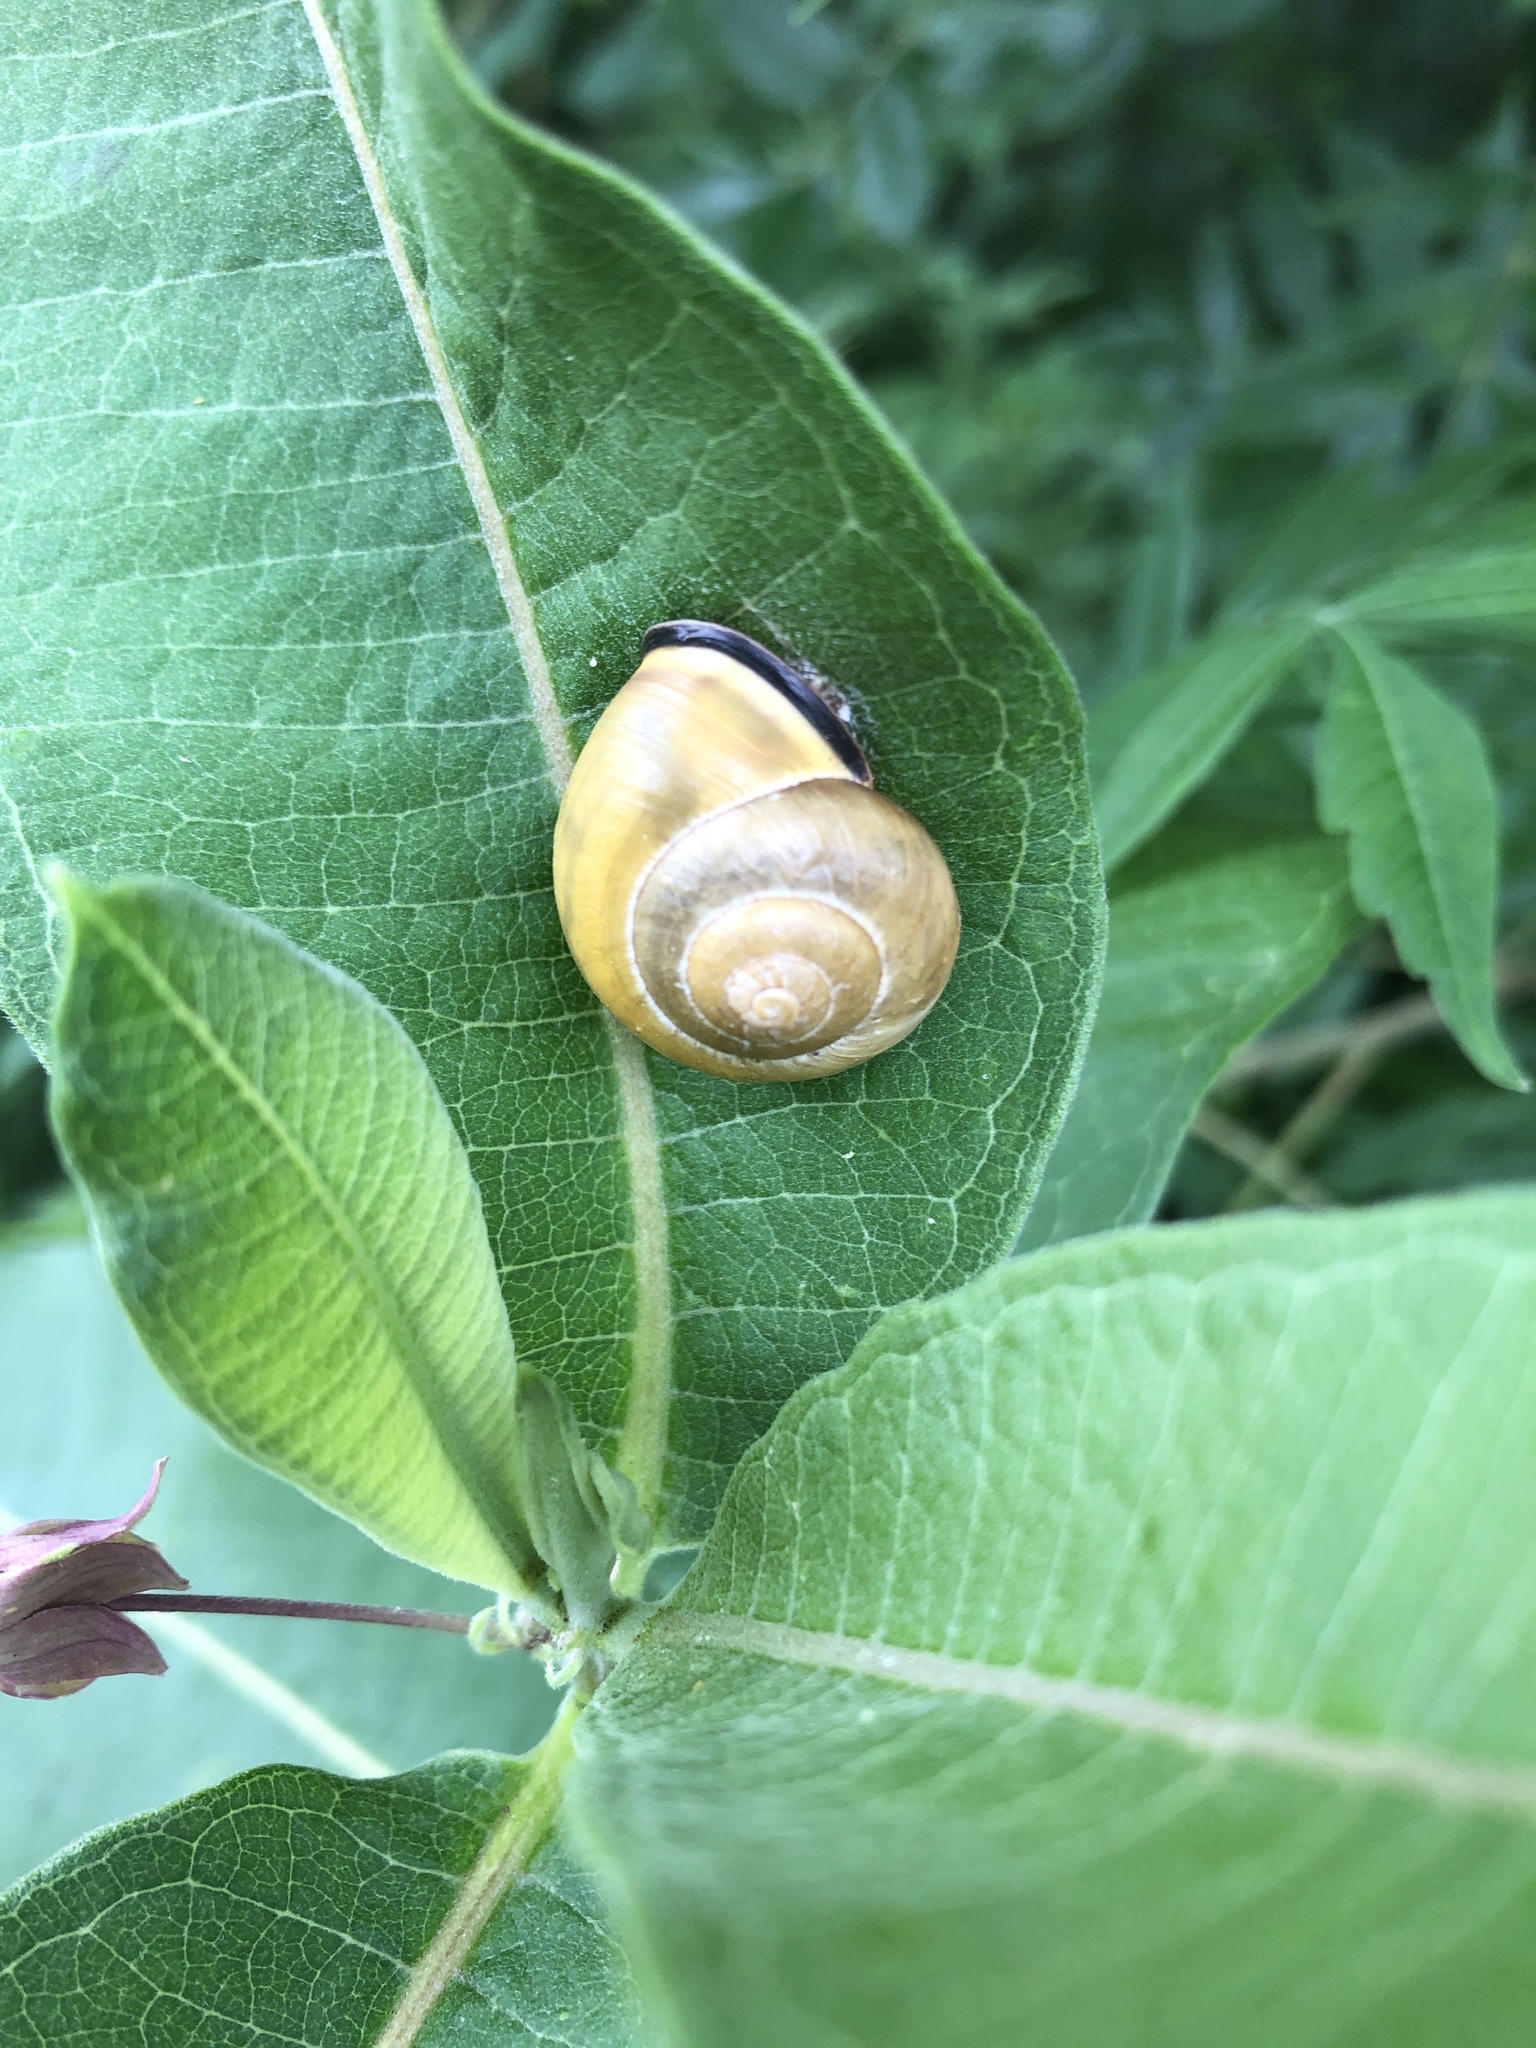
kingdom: Animalia
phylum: Mollusca
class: Gastropoda
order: Stylommatophora
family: Helicidae
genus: Cepaea
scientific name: Cepaea nemoralis
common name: Grovesnail
